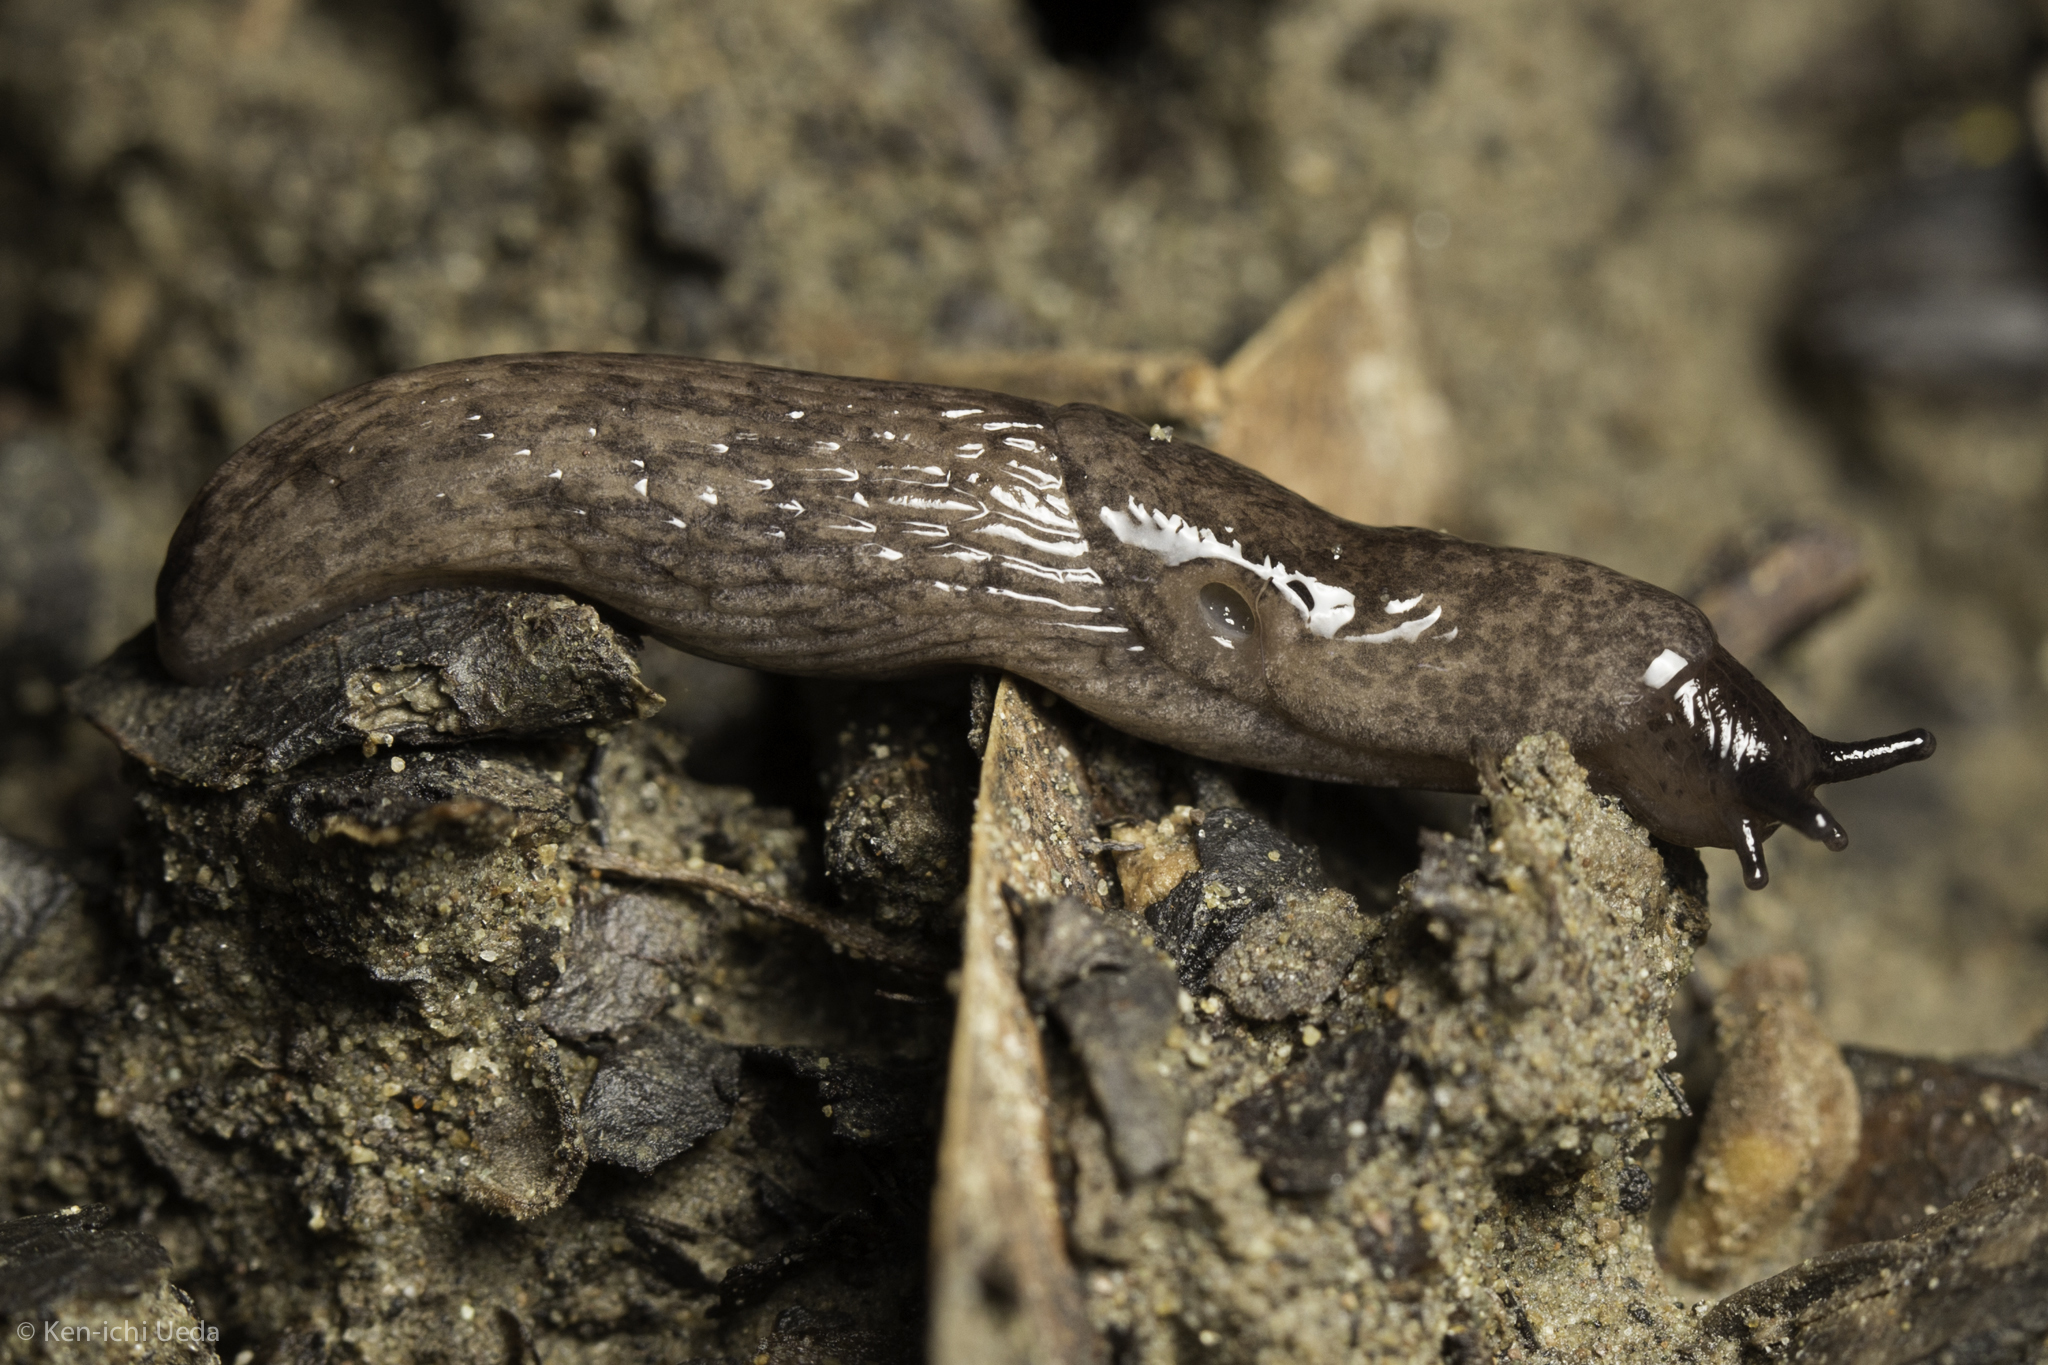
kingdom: Animalia
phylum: Mollusca
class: Gastropoda
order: Stylommatophora
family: Agriolimacidae
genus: Deroceras
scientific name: Deroceras reticulatum
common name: Gray field slug
